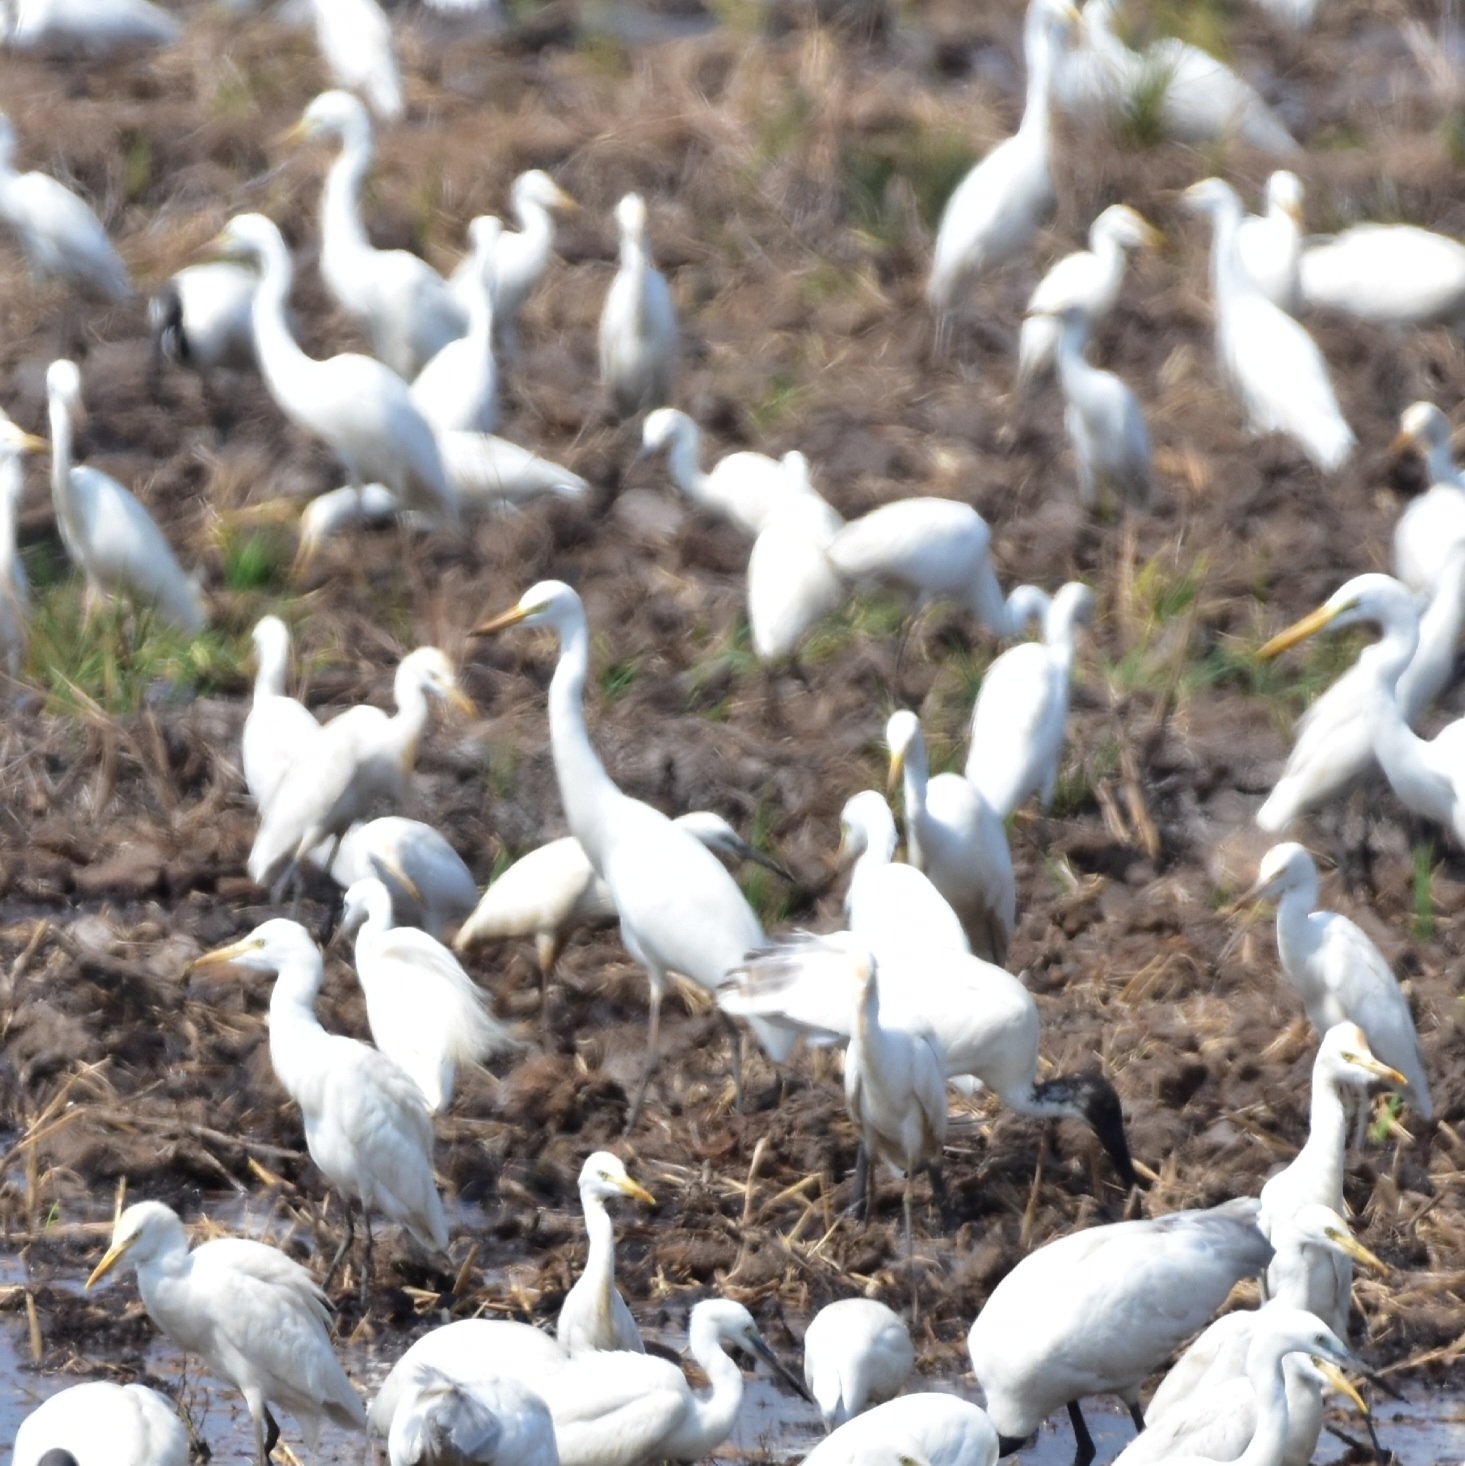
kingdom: Animalia
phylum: Chordata
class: Aves
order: Pelecaniformes
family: Ardeidae
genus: Egretta
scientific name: Egretta intermedia
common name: Intermediate egret
